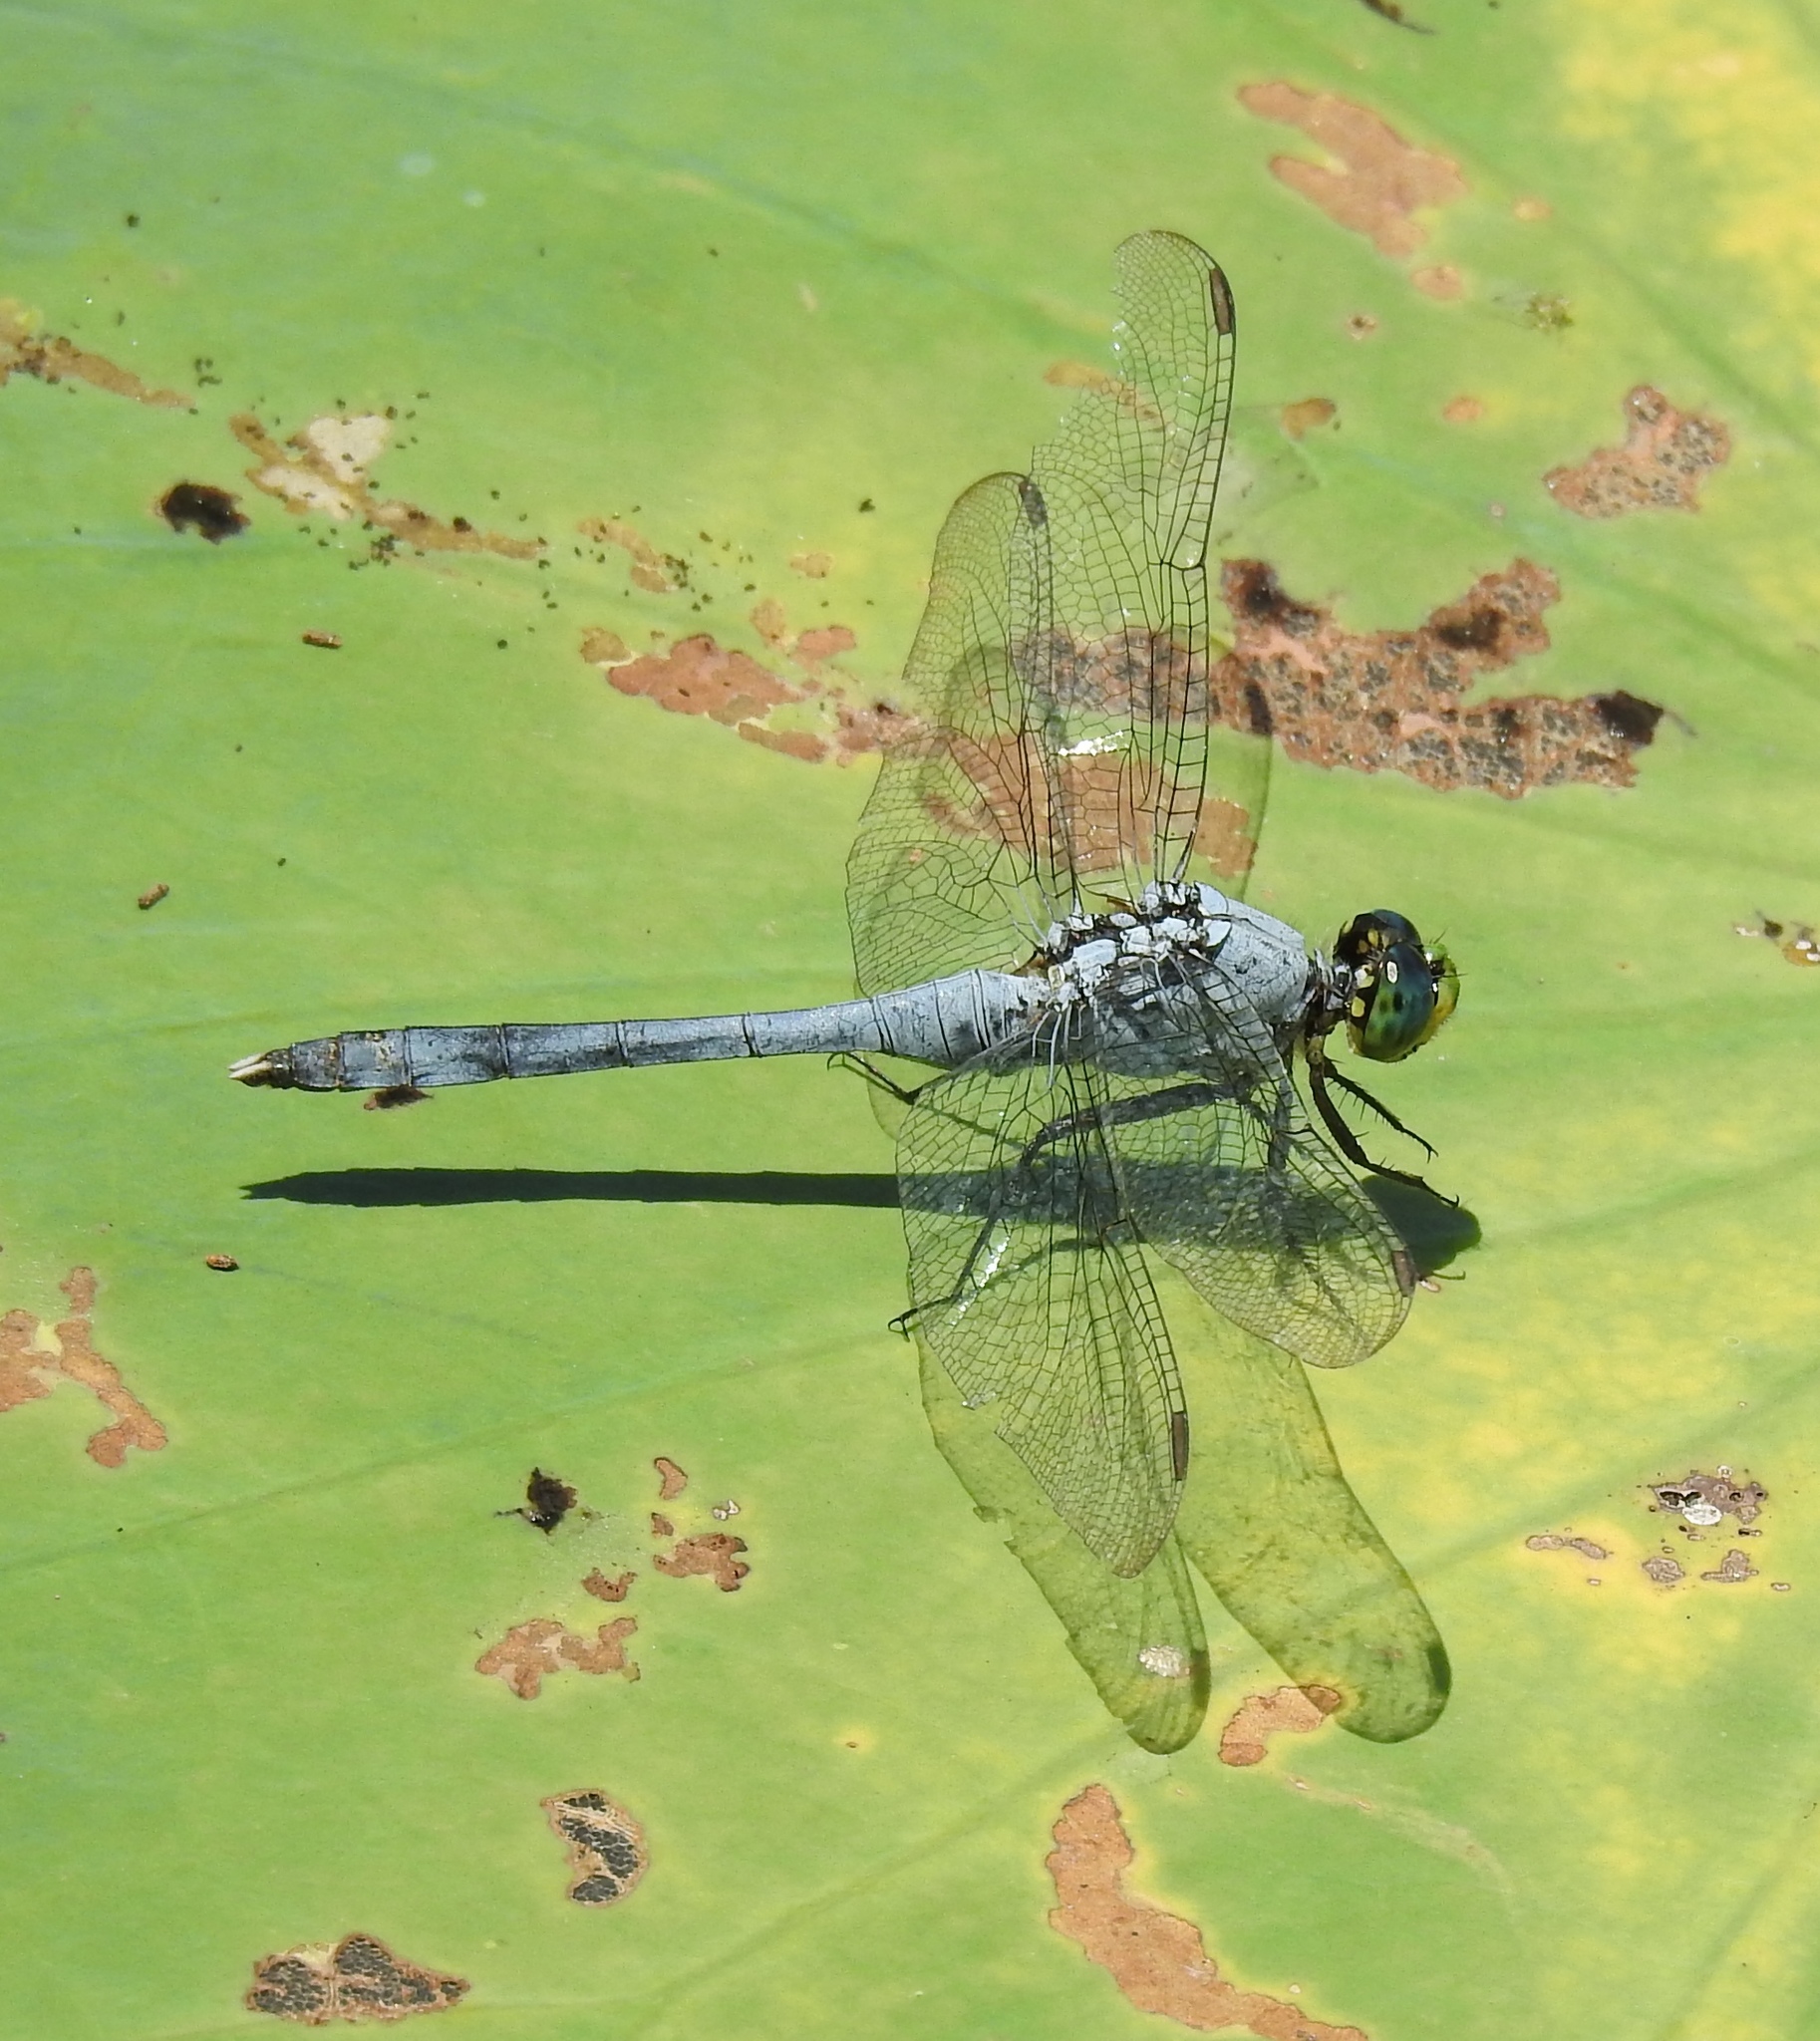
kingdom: Animalia
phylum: Arthropoda
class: Insecta
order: Odonata
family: Libellulidae
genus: Erythemis
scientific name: Erythemis simplicicollis
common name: Eastern pondhawk
